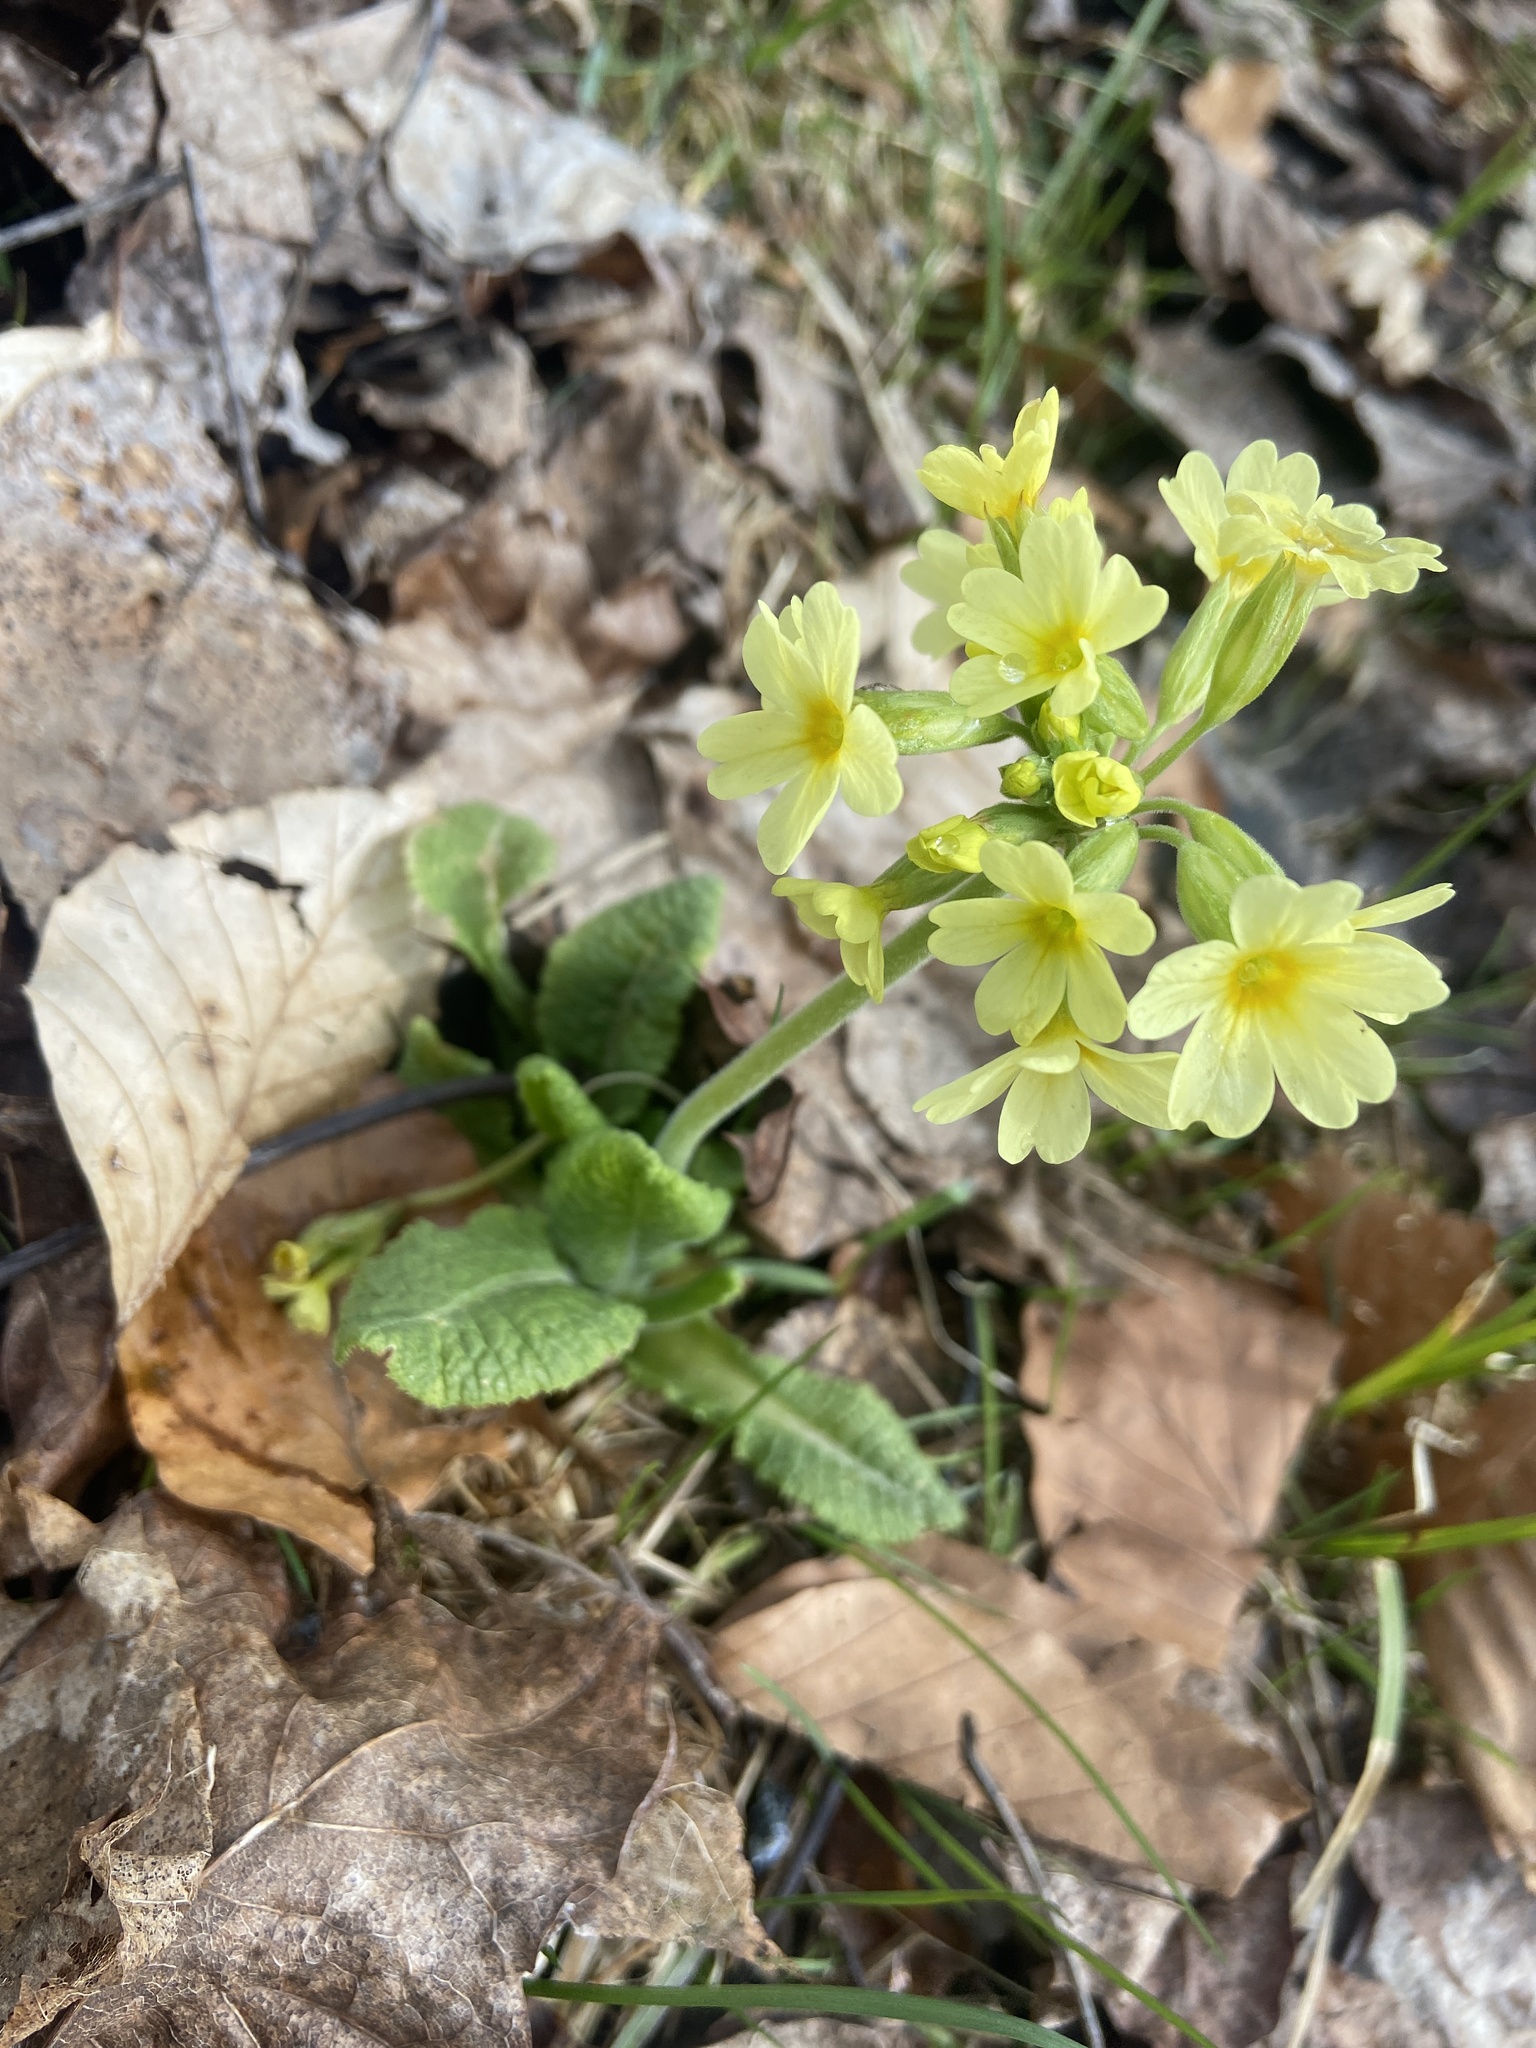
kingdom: Plantae
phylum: Tracheophyta
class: Magnoliopsida
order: Ericales
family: Primulaceae
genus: Primula
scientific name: Primula elatior
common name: Oxlip
